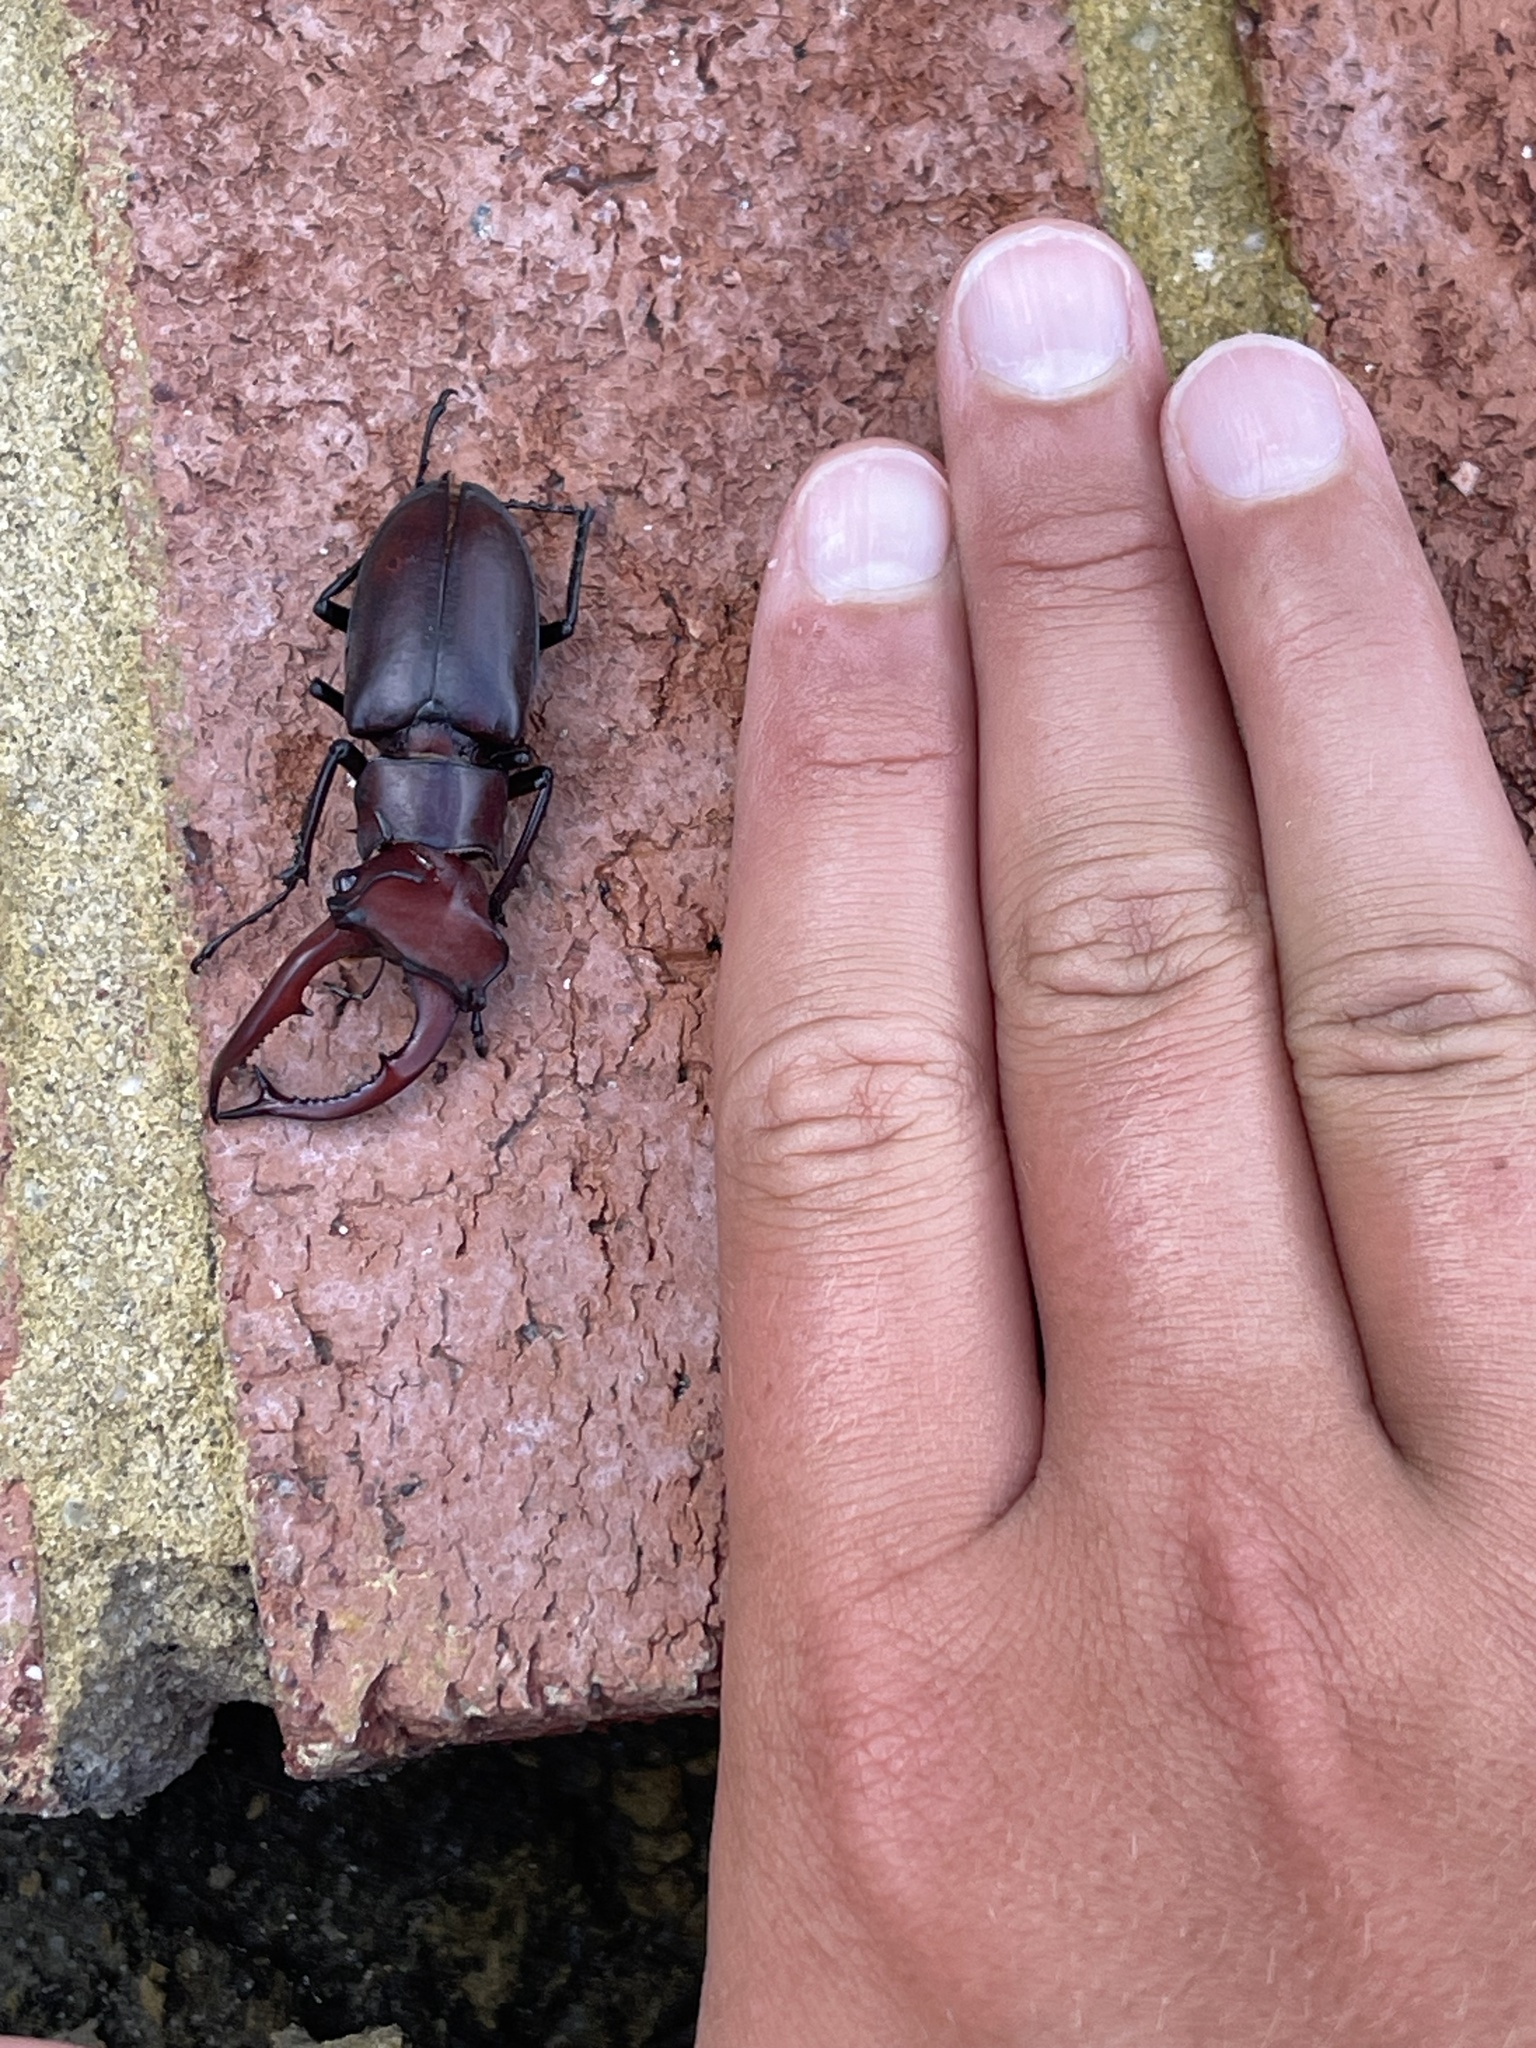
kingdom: Animalia
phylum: Arthropoda
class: Insecta
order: Coleoptera
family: Lucanidae
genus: Lucanus
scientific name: Lucanus elaphus
